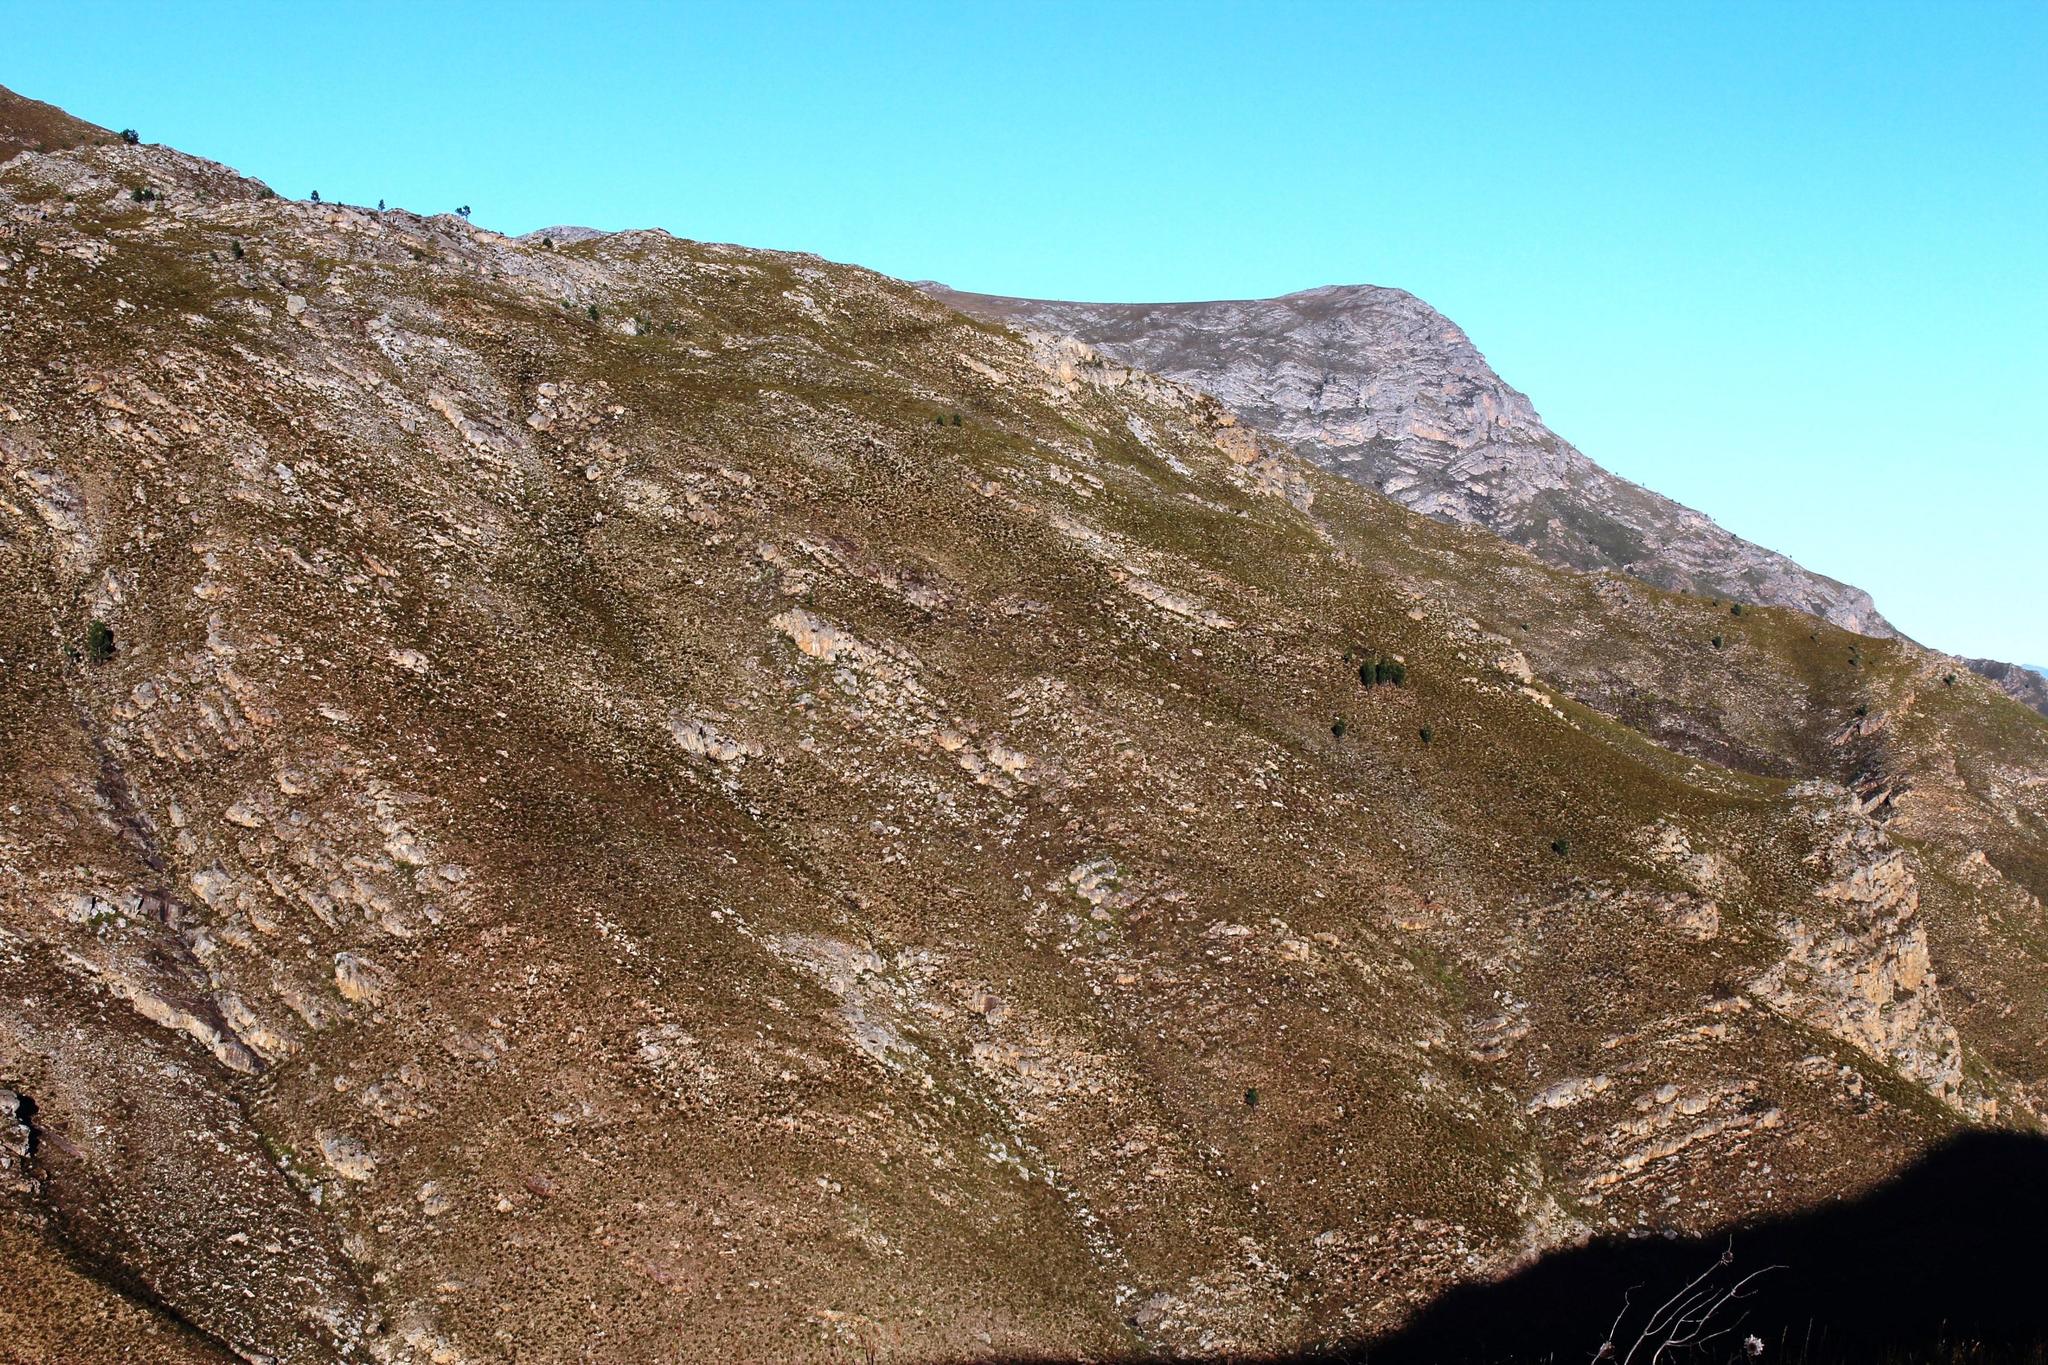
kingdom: Plantae
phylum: Tracheophyta
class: Pinopsida
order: Pinales
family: Pinaceae
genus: Pinus
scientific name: Pinus pinaster
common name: Maritime pine
